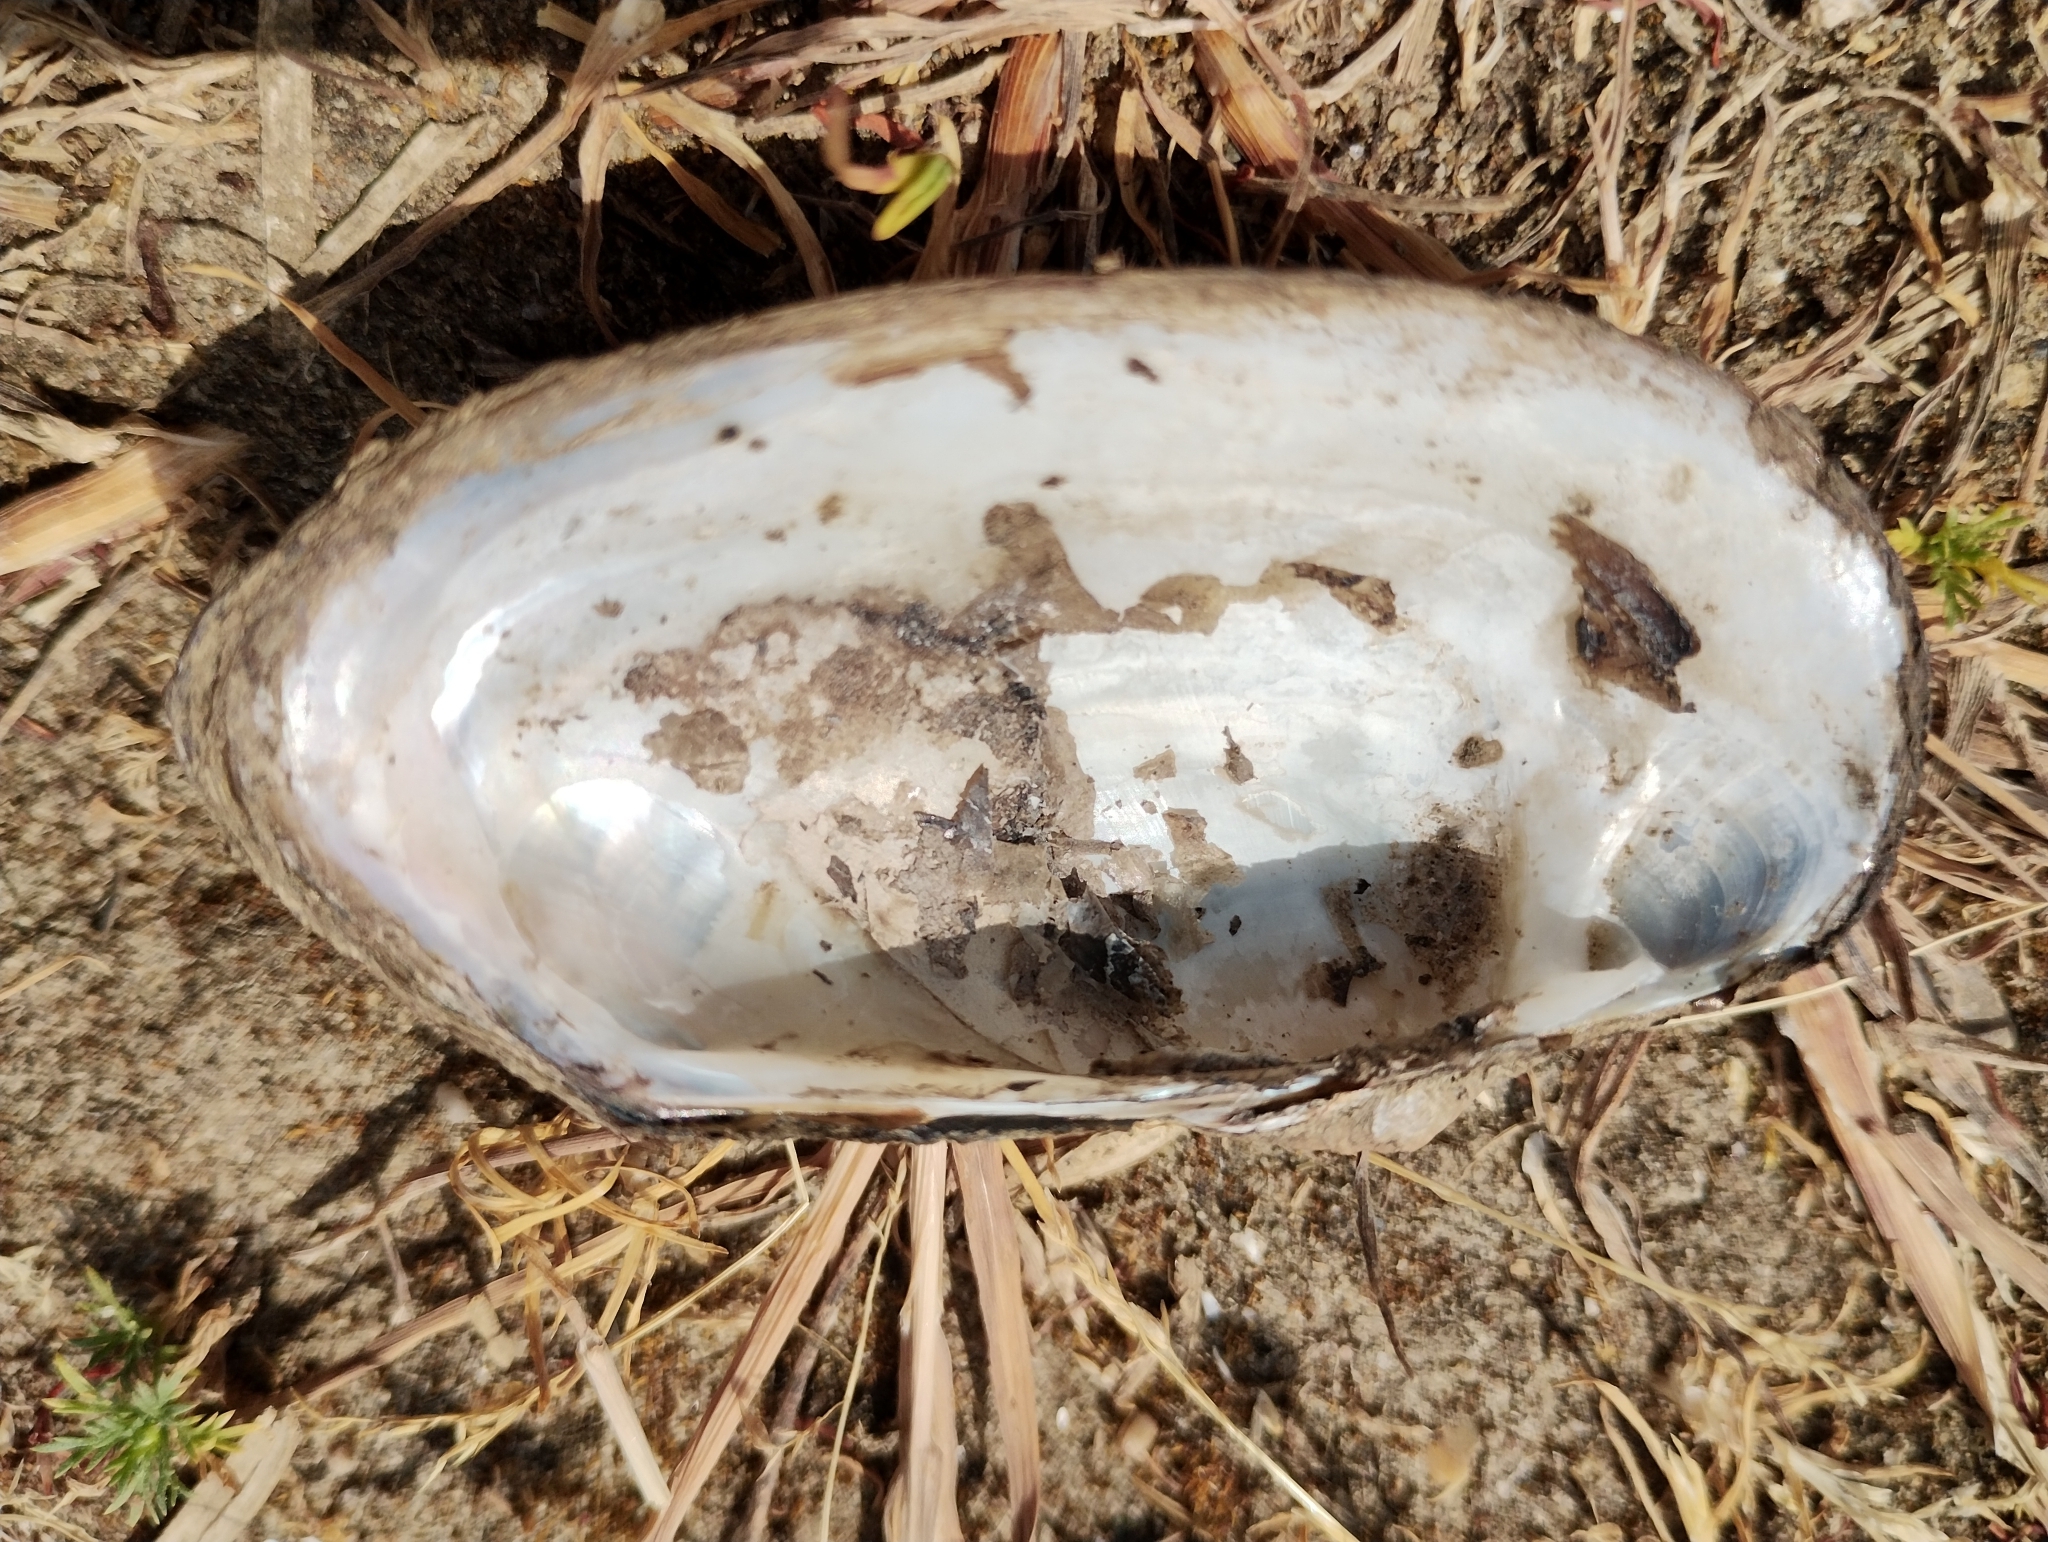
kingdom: Animalia
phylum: Mollusca
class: Bivalvia
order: Unionida
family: Unionidae
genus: Unio
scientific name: Unio tumidus
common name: Swollen river mussel
